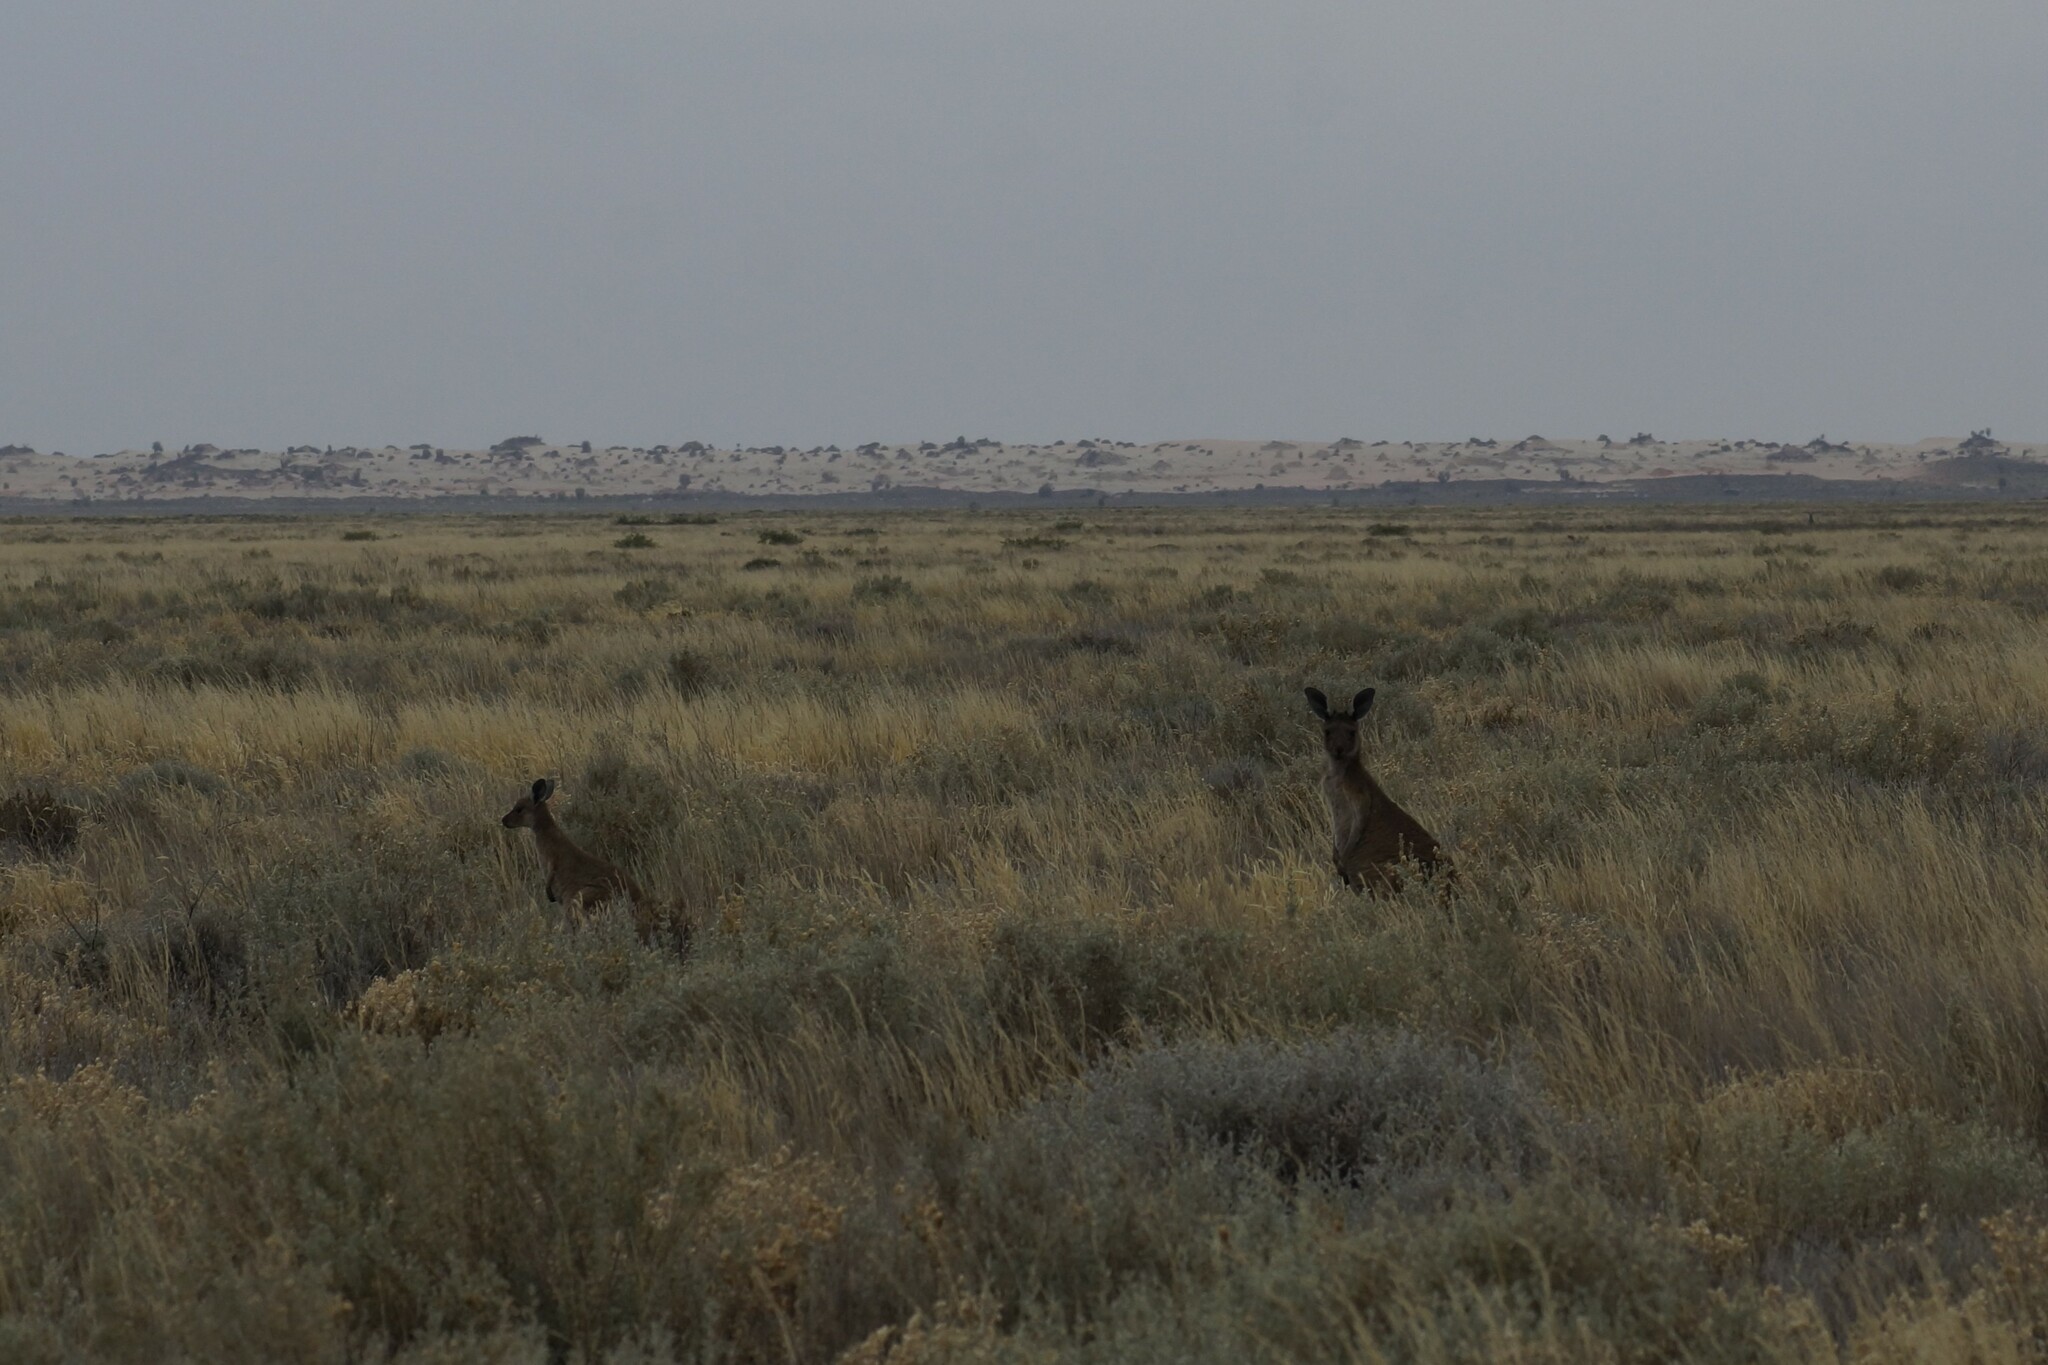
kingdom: Animalia
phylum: Chordata
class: Mammalia
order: Diprotodontia
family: Macropodidae
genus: Macropus
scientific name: Macropus fuliginosus
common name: Western grey kangaroo
